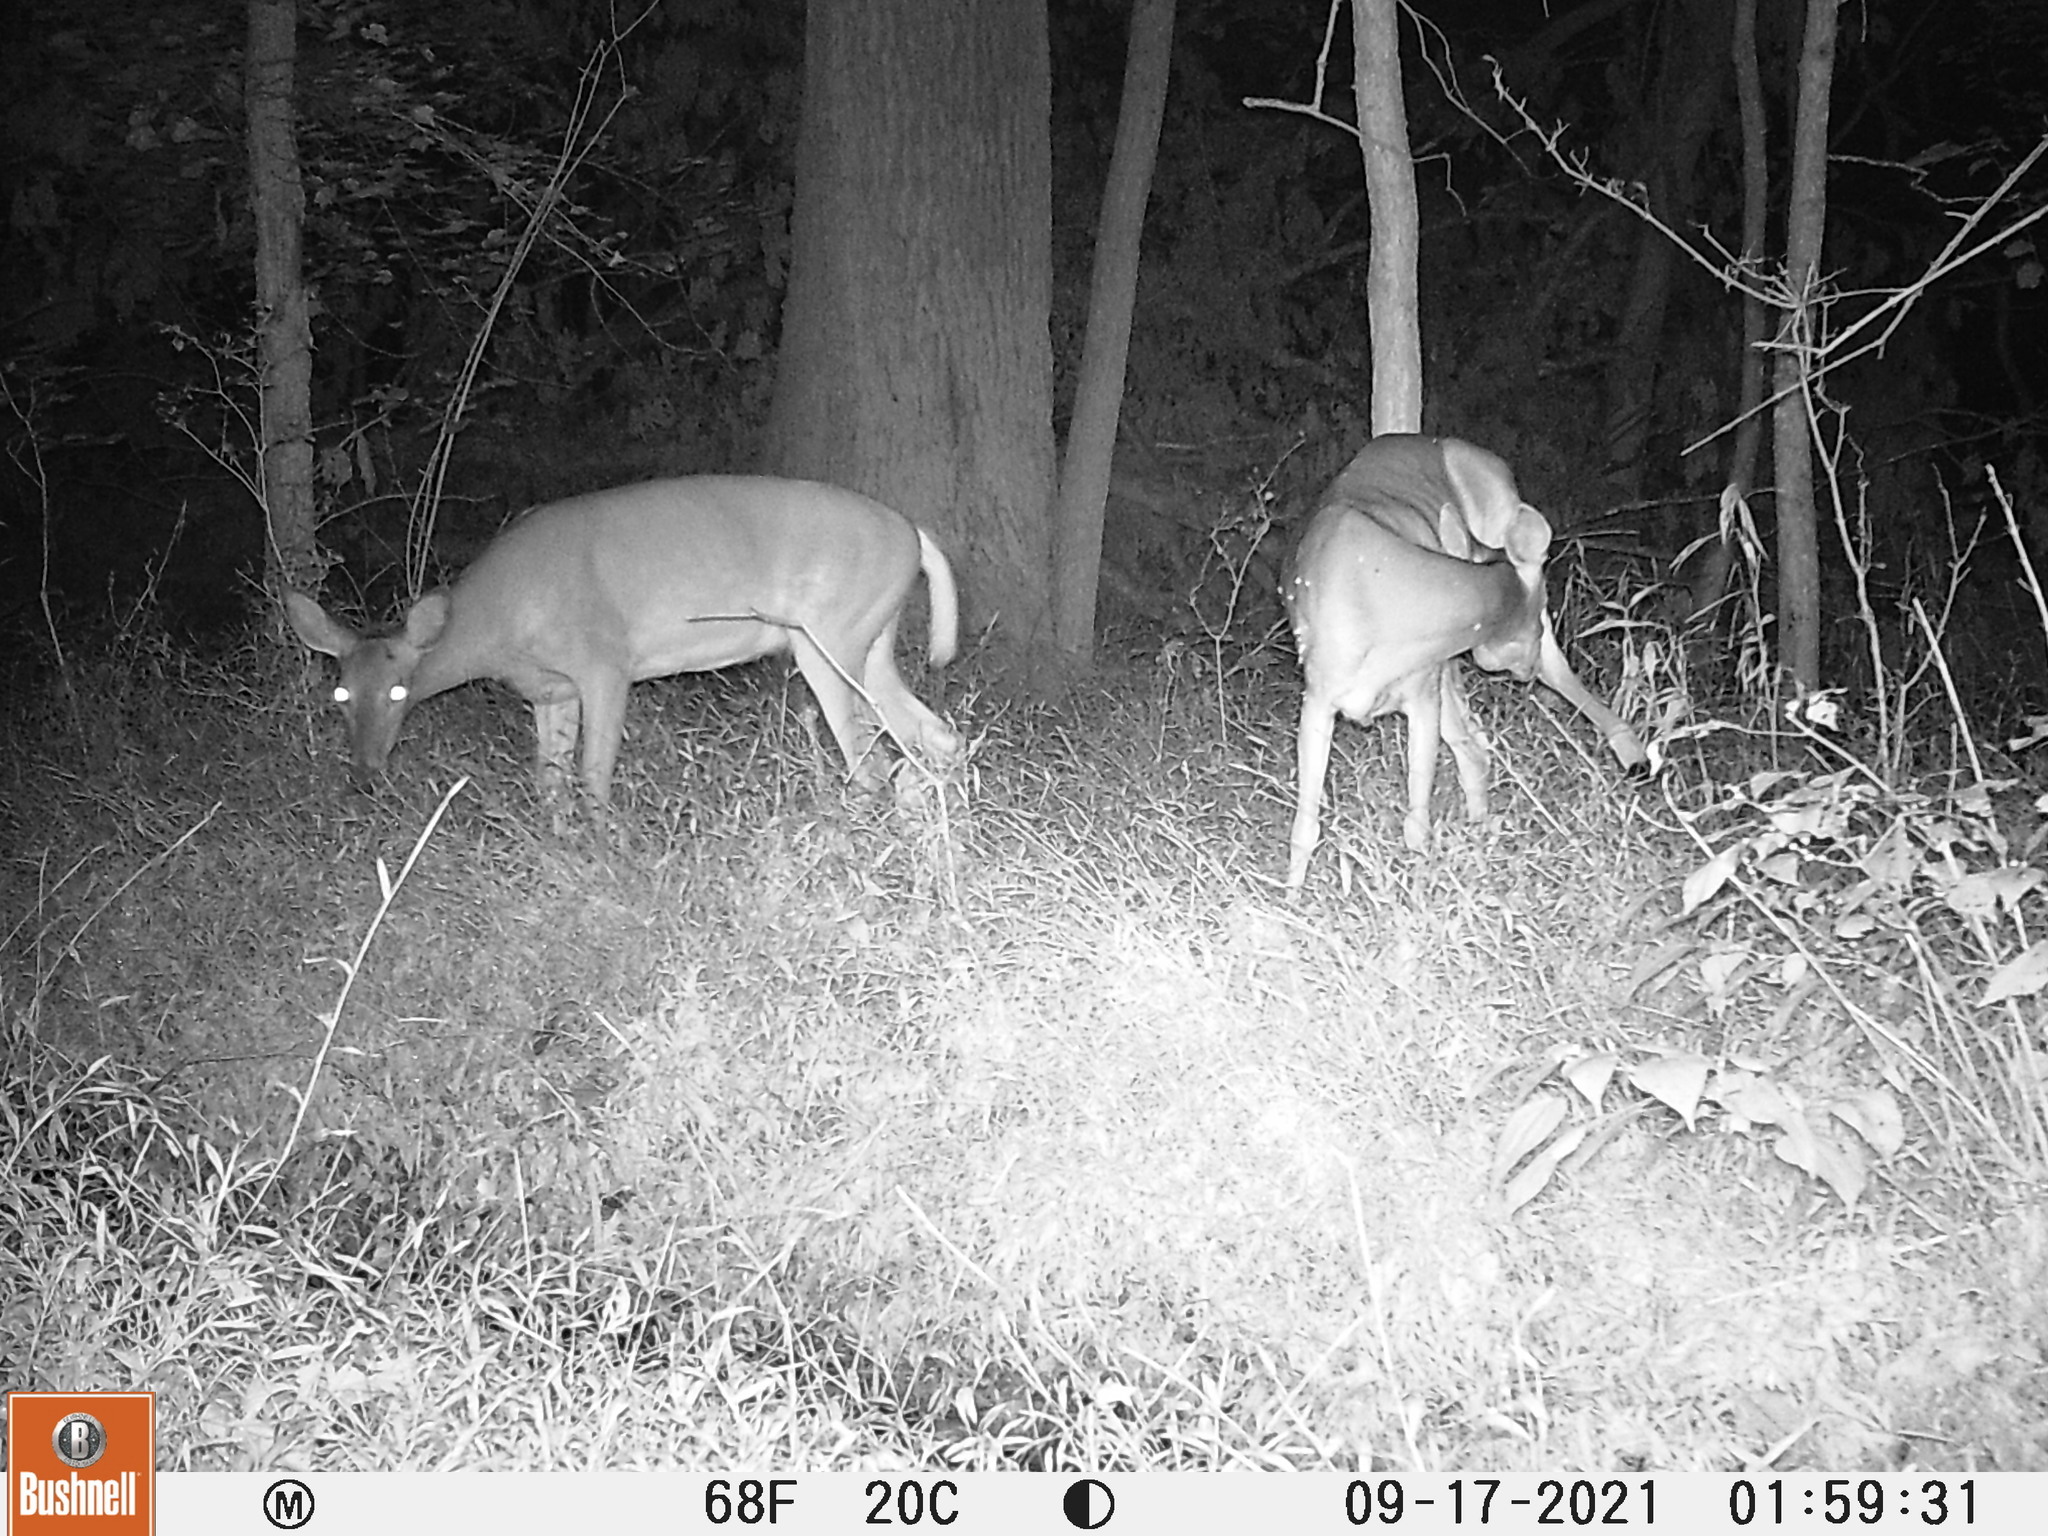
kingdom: Animalia
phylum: Chordata
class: Mammalia
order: Artiodactyla
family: Cervidae
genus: Odocoileus
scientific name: Odocoileus virginianus
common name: White-tailed deer
